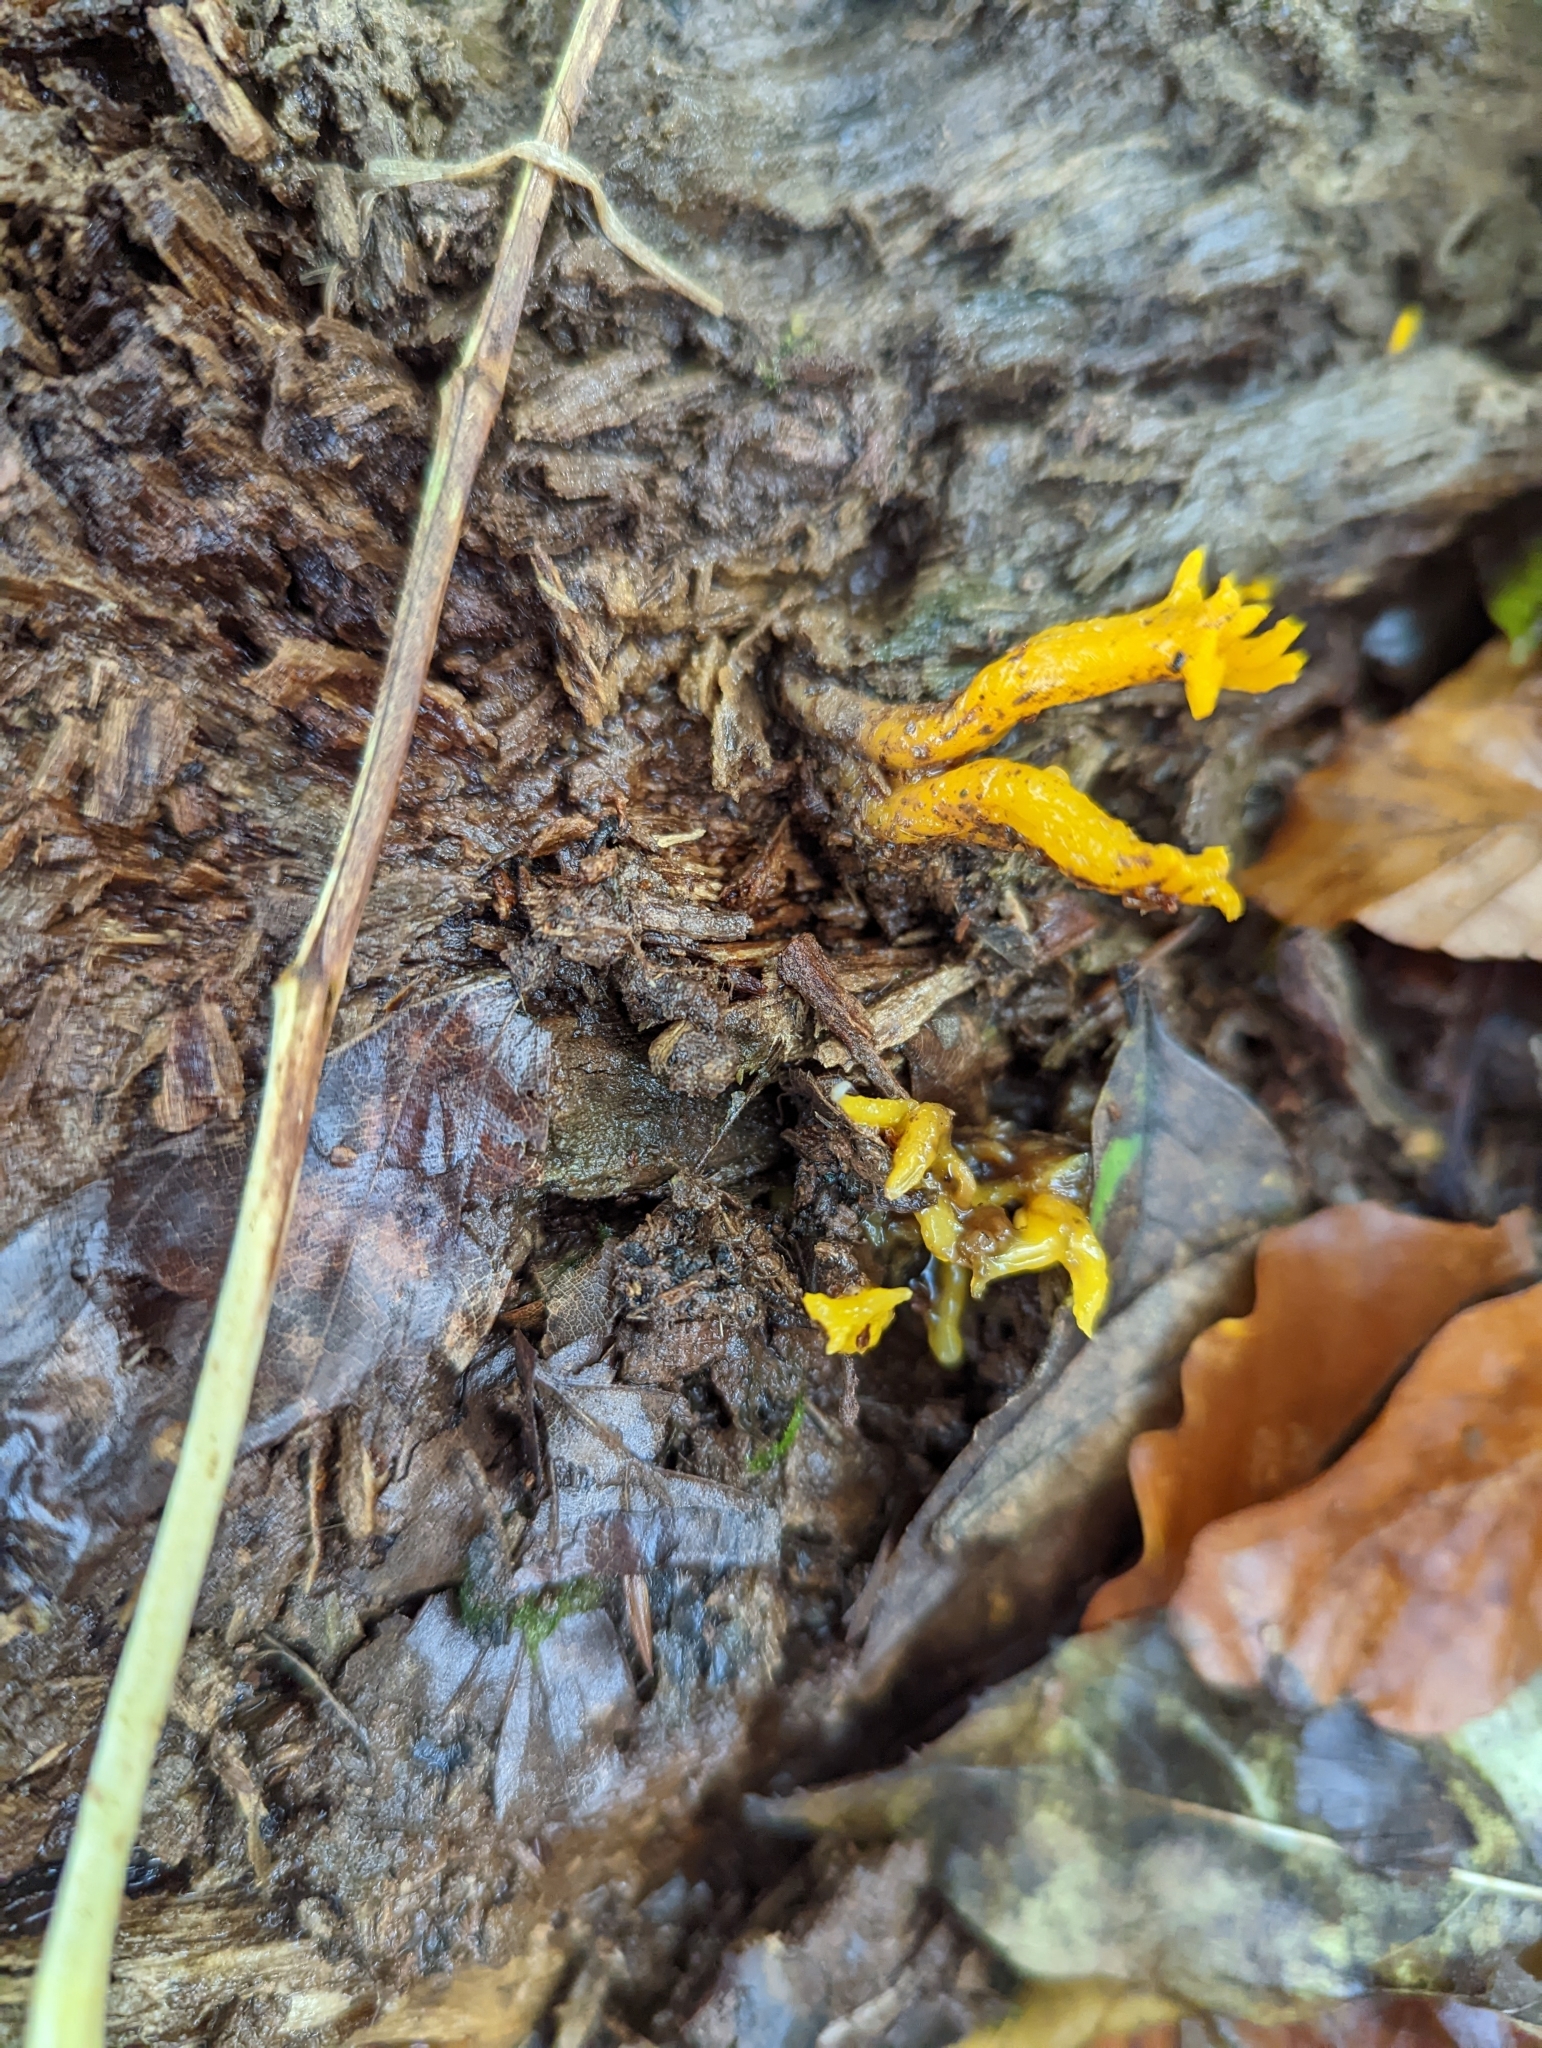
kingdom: Fungi
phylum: Basidiomycota
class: Dacrymycetes
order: Dacrymycetales
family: Dacrymycetaceae
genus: Calocera
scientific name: Calocera viscosa
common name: Yellow stagshorn
